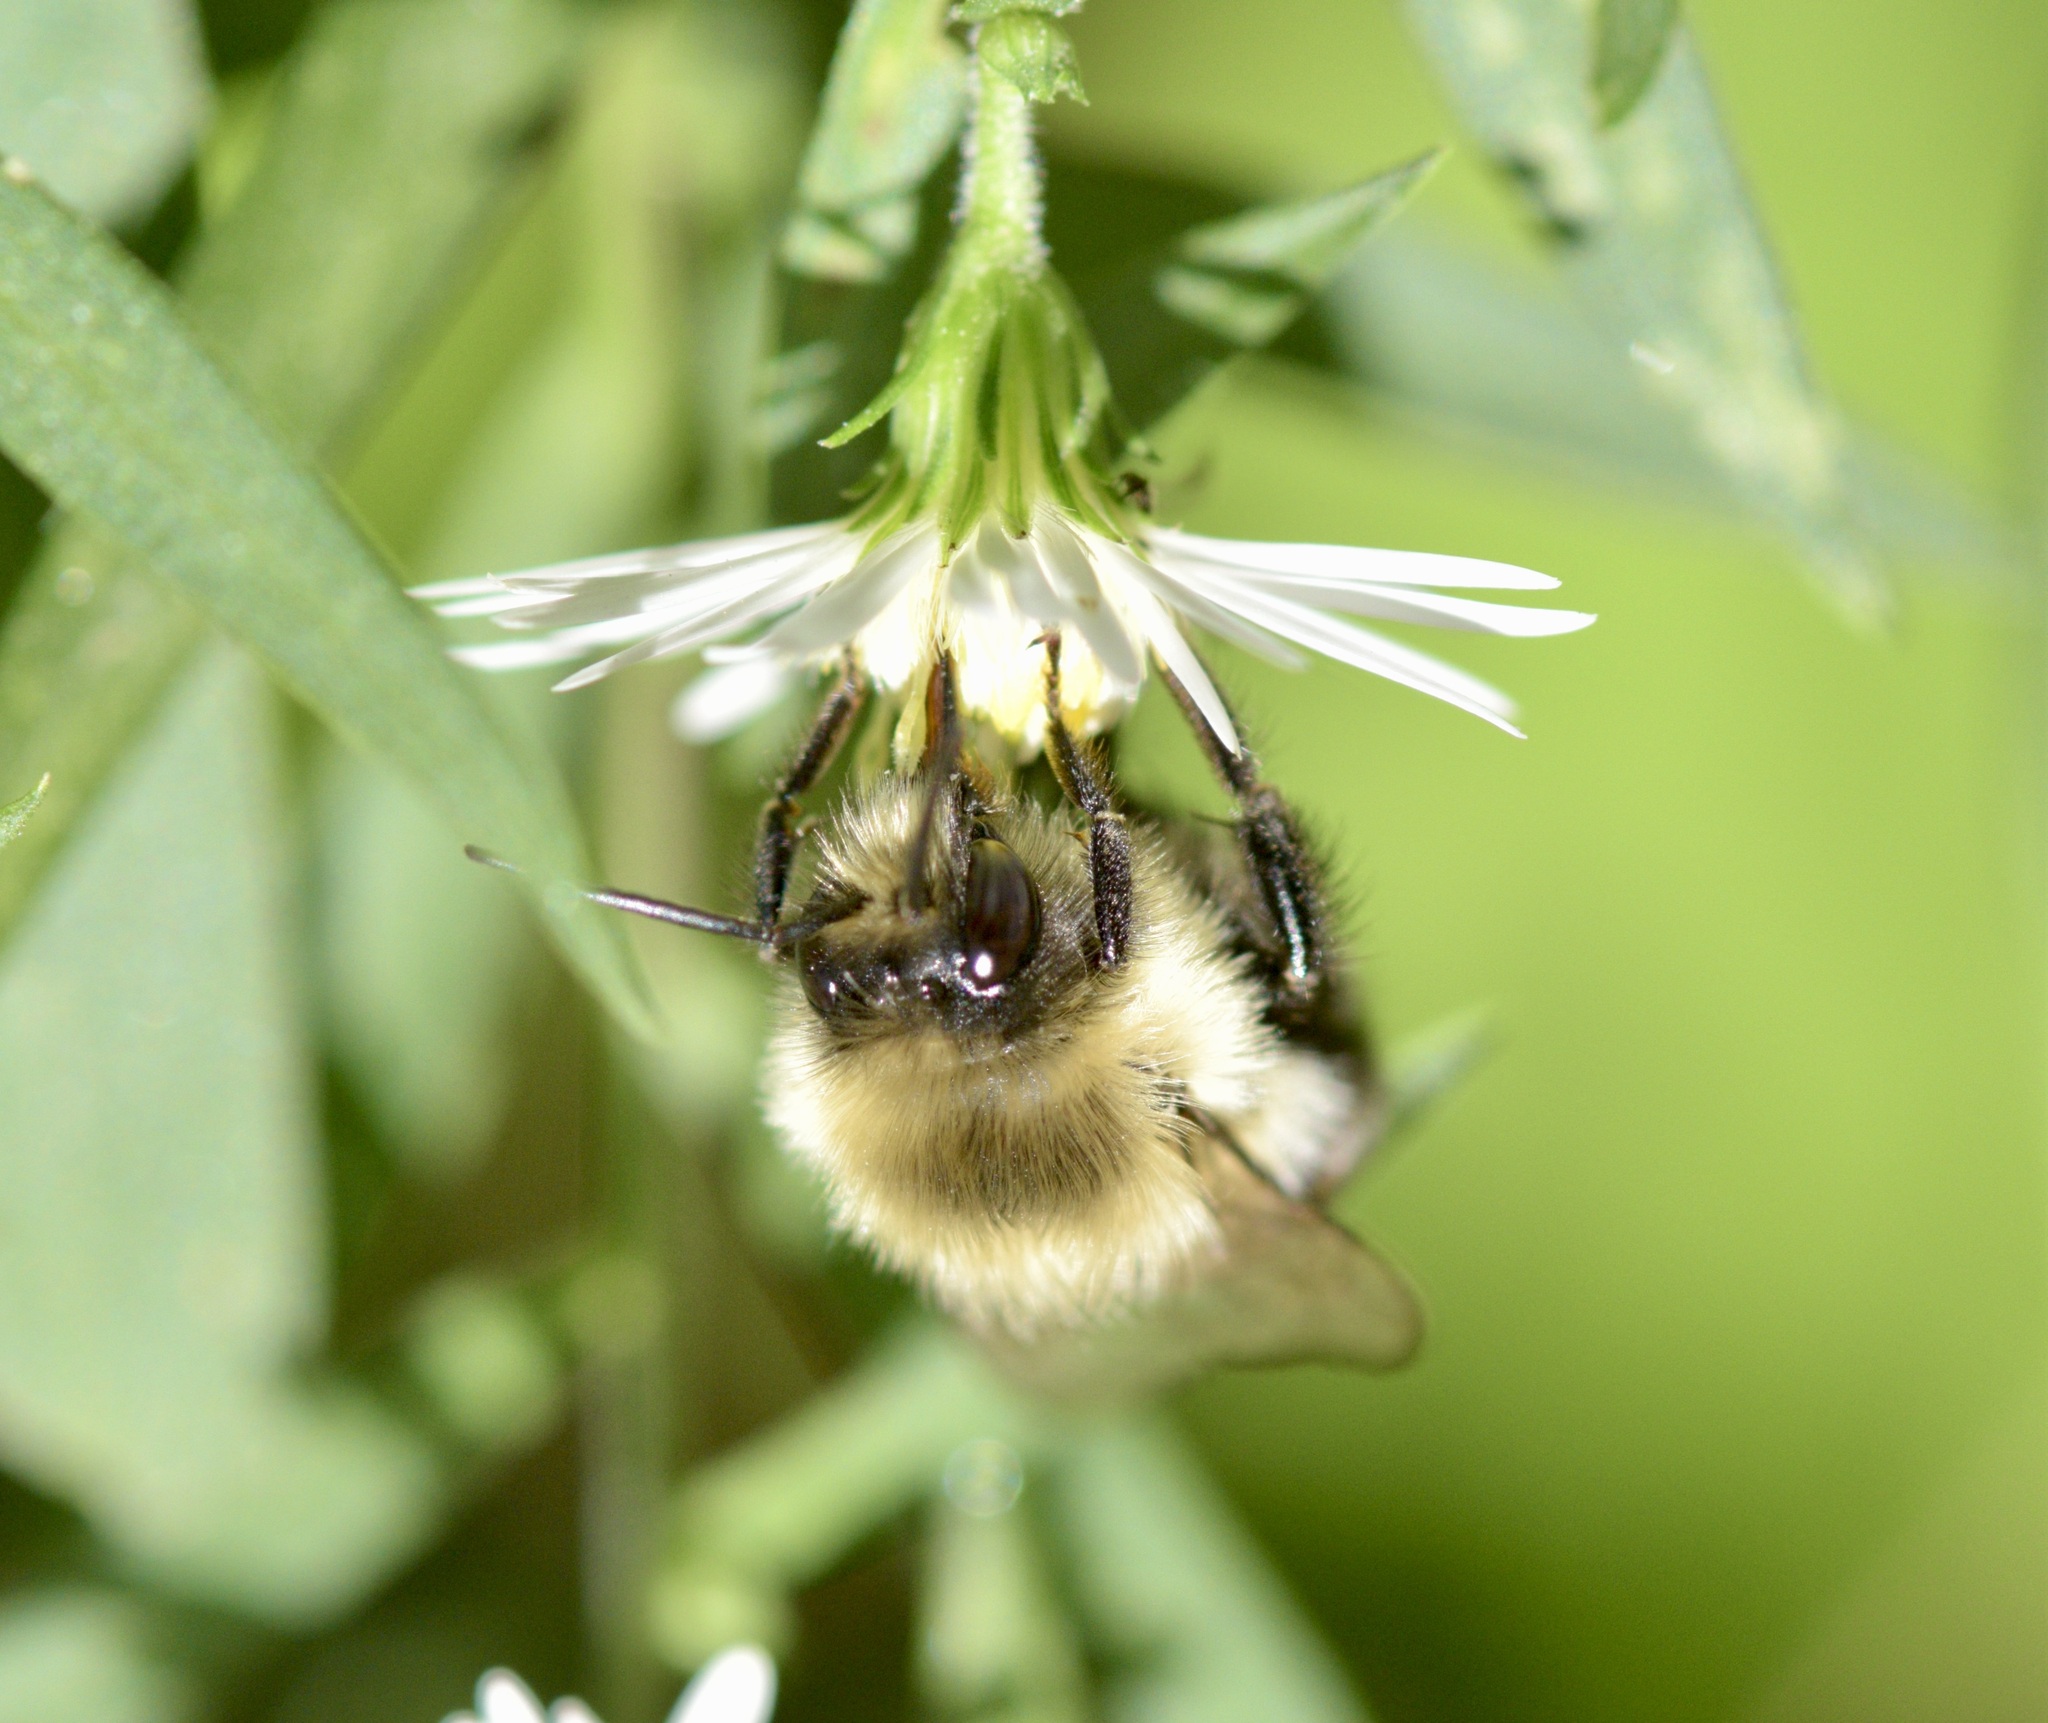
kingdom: Animalia
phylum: Arthropoda
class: Insecta
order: Hymenoptera
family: Apidae
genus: Bombus
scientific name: Bombus impatiens
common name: Common eastern bumble bee
